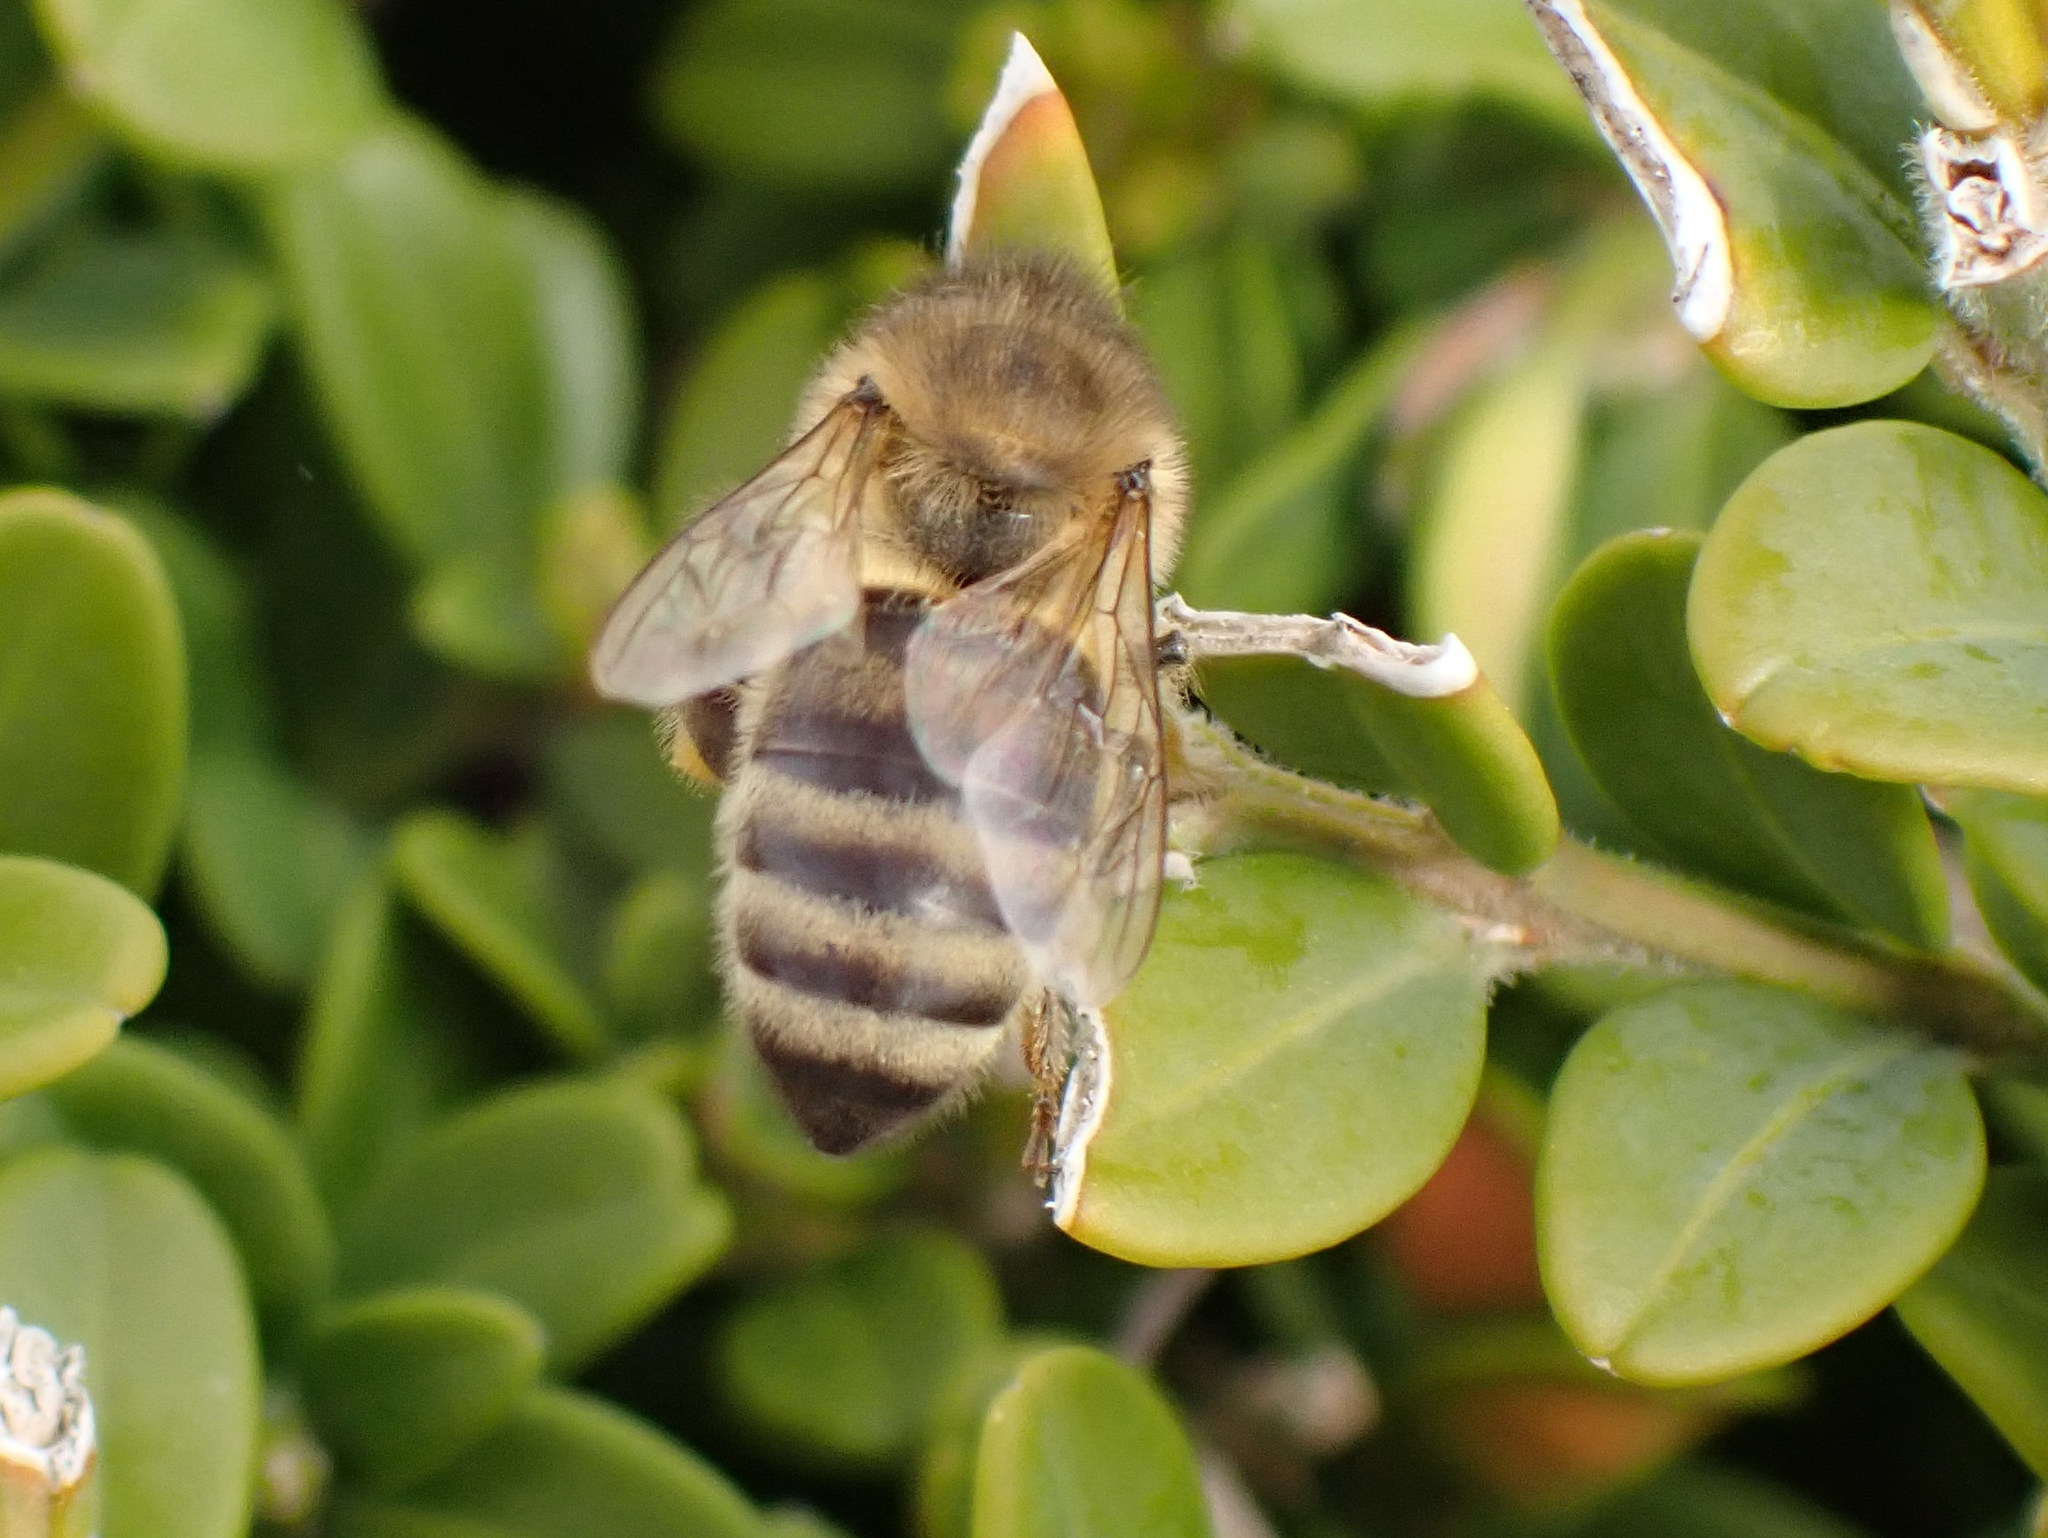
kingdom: Animalia
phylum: Arthropoda
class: Insecta
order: Hymenoptera
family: Apidae
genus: Apis
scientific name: Apis mellifera
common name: Honey bee
